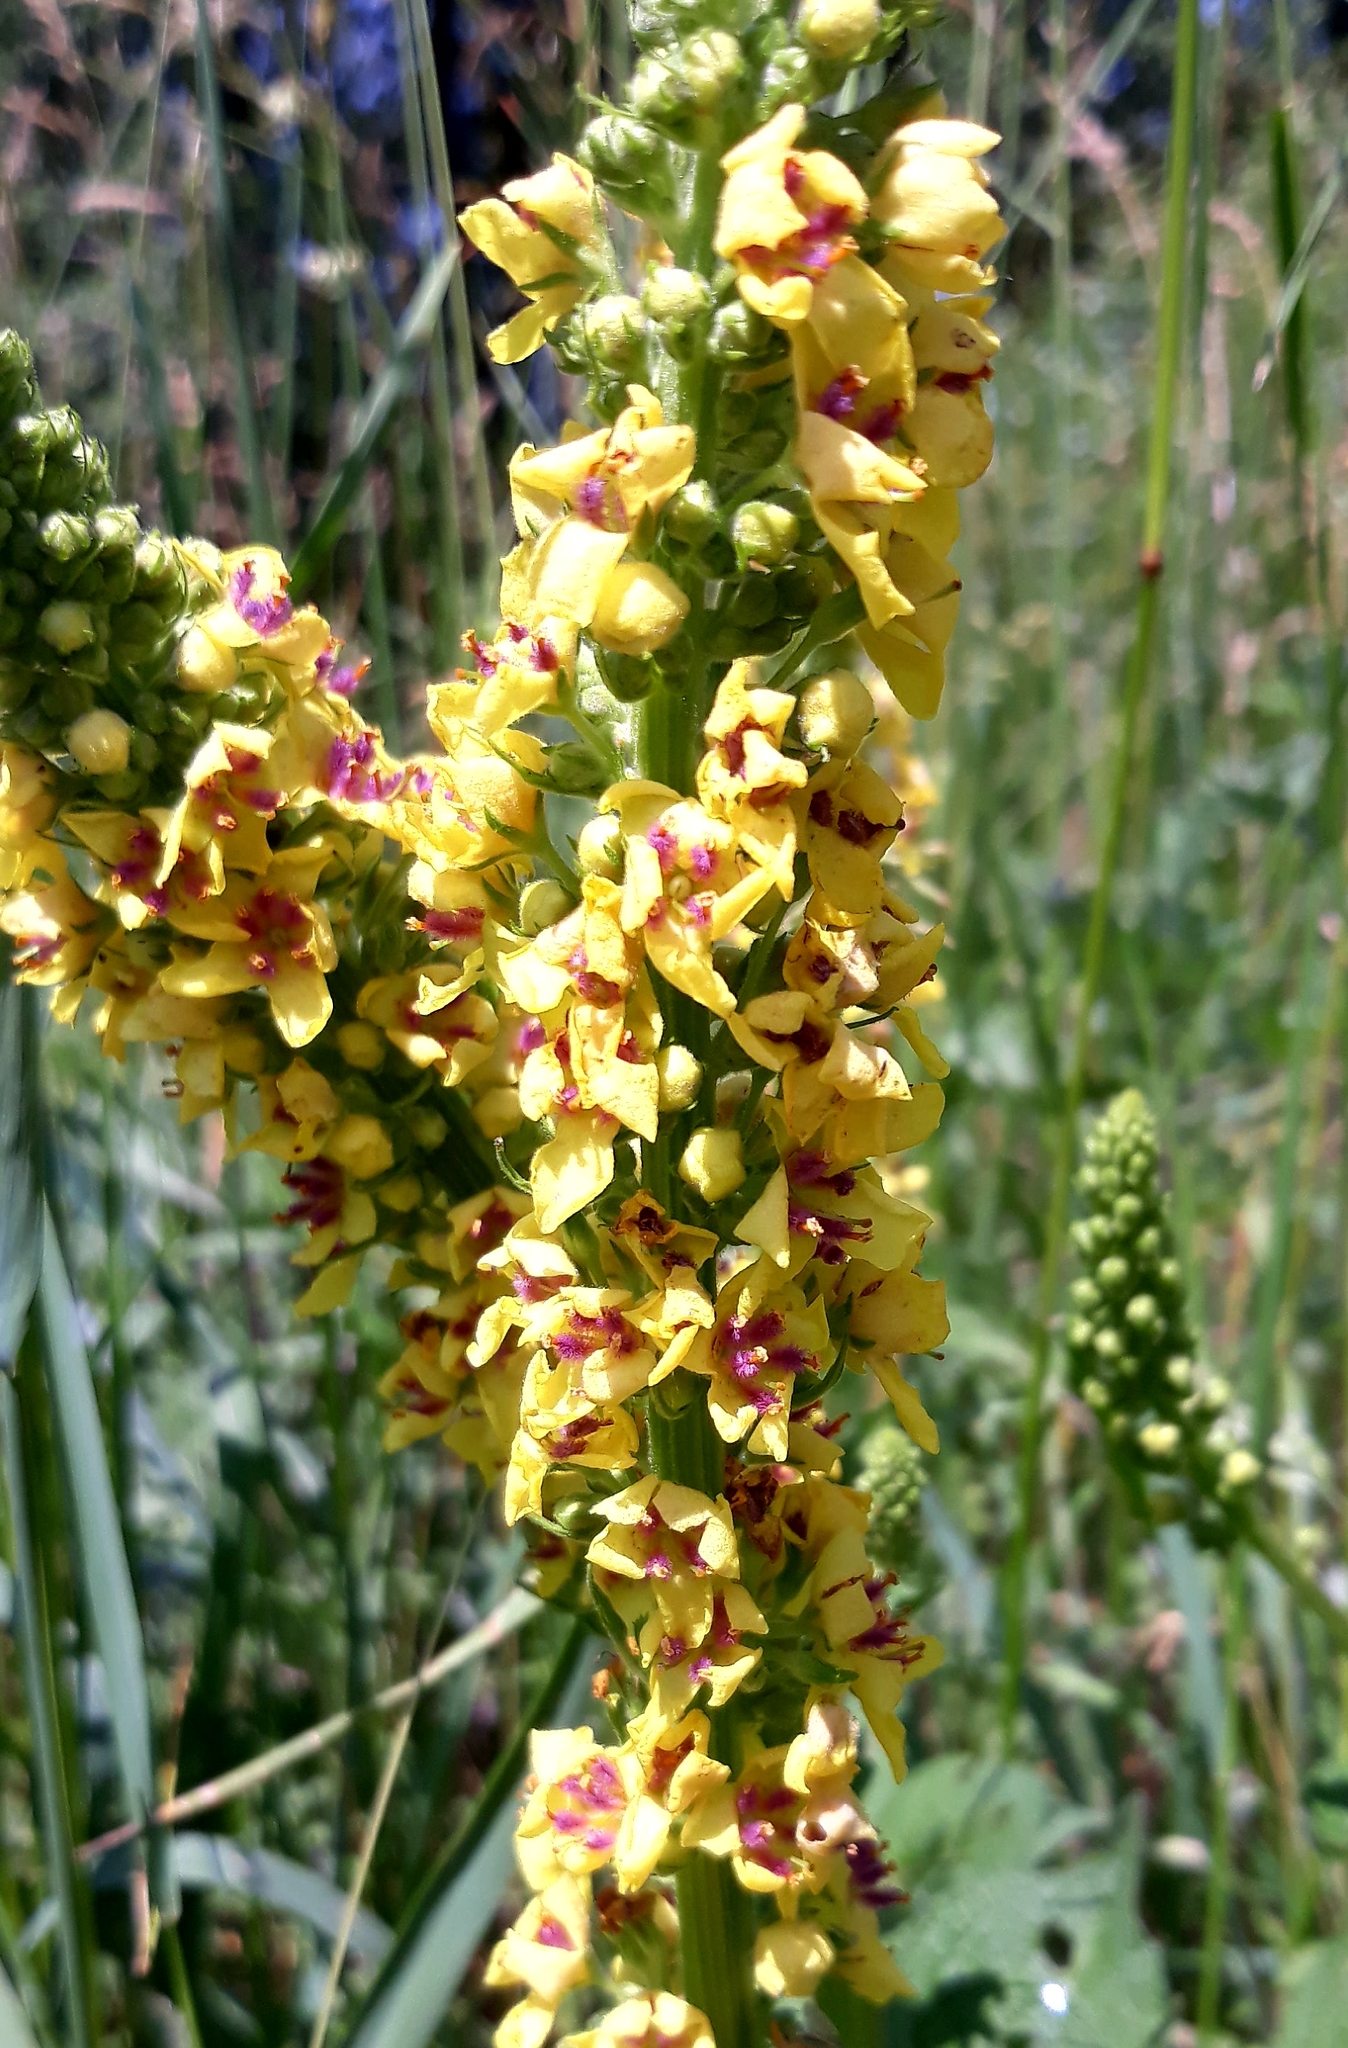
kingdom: Plantae
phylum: Tracheophyta
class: Magnoliopsida
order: Lamiales
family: Scrophulariaceae
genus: Verbascum
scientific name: Verbascum nigrum
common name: Dark mullein
